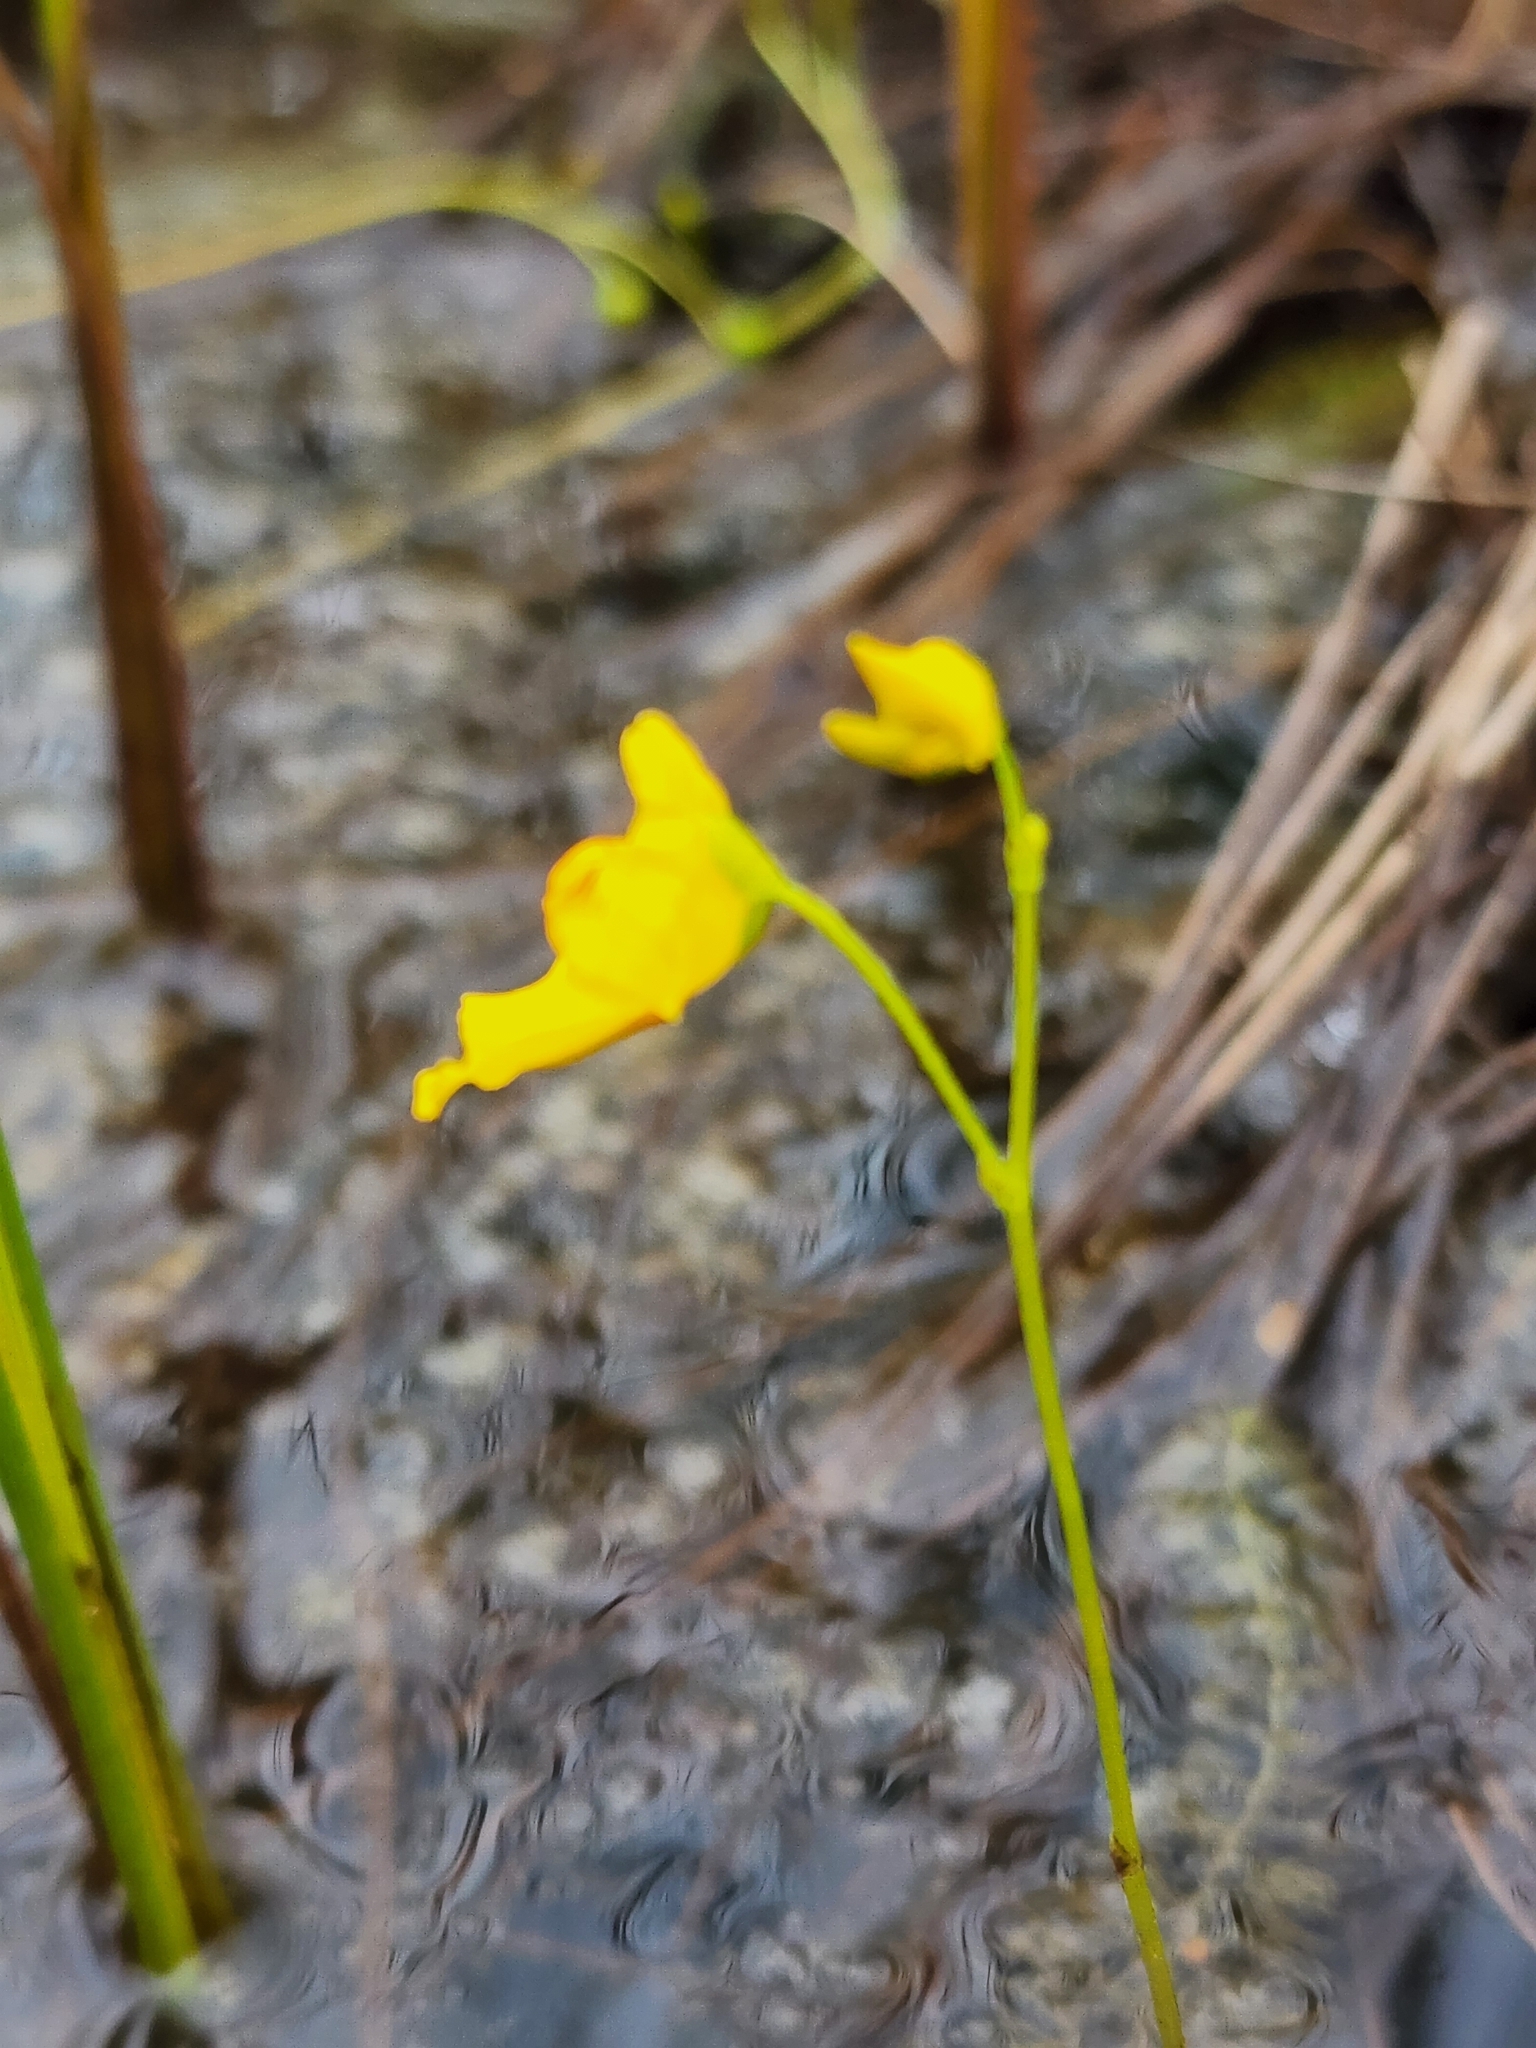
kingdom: Plantae
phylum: Tracheophyta
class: Magnoliopsida
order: Lamiales
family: Lentibulariaceae
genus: Utricularia
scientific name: Utricularia intermedia
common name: Intermediate bladderwort
